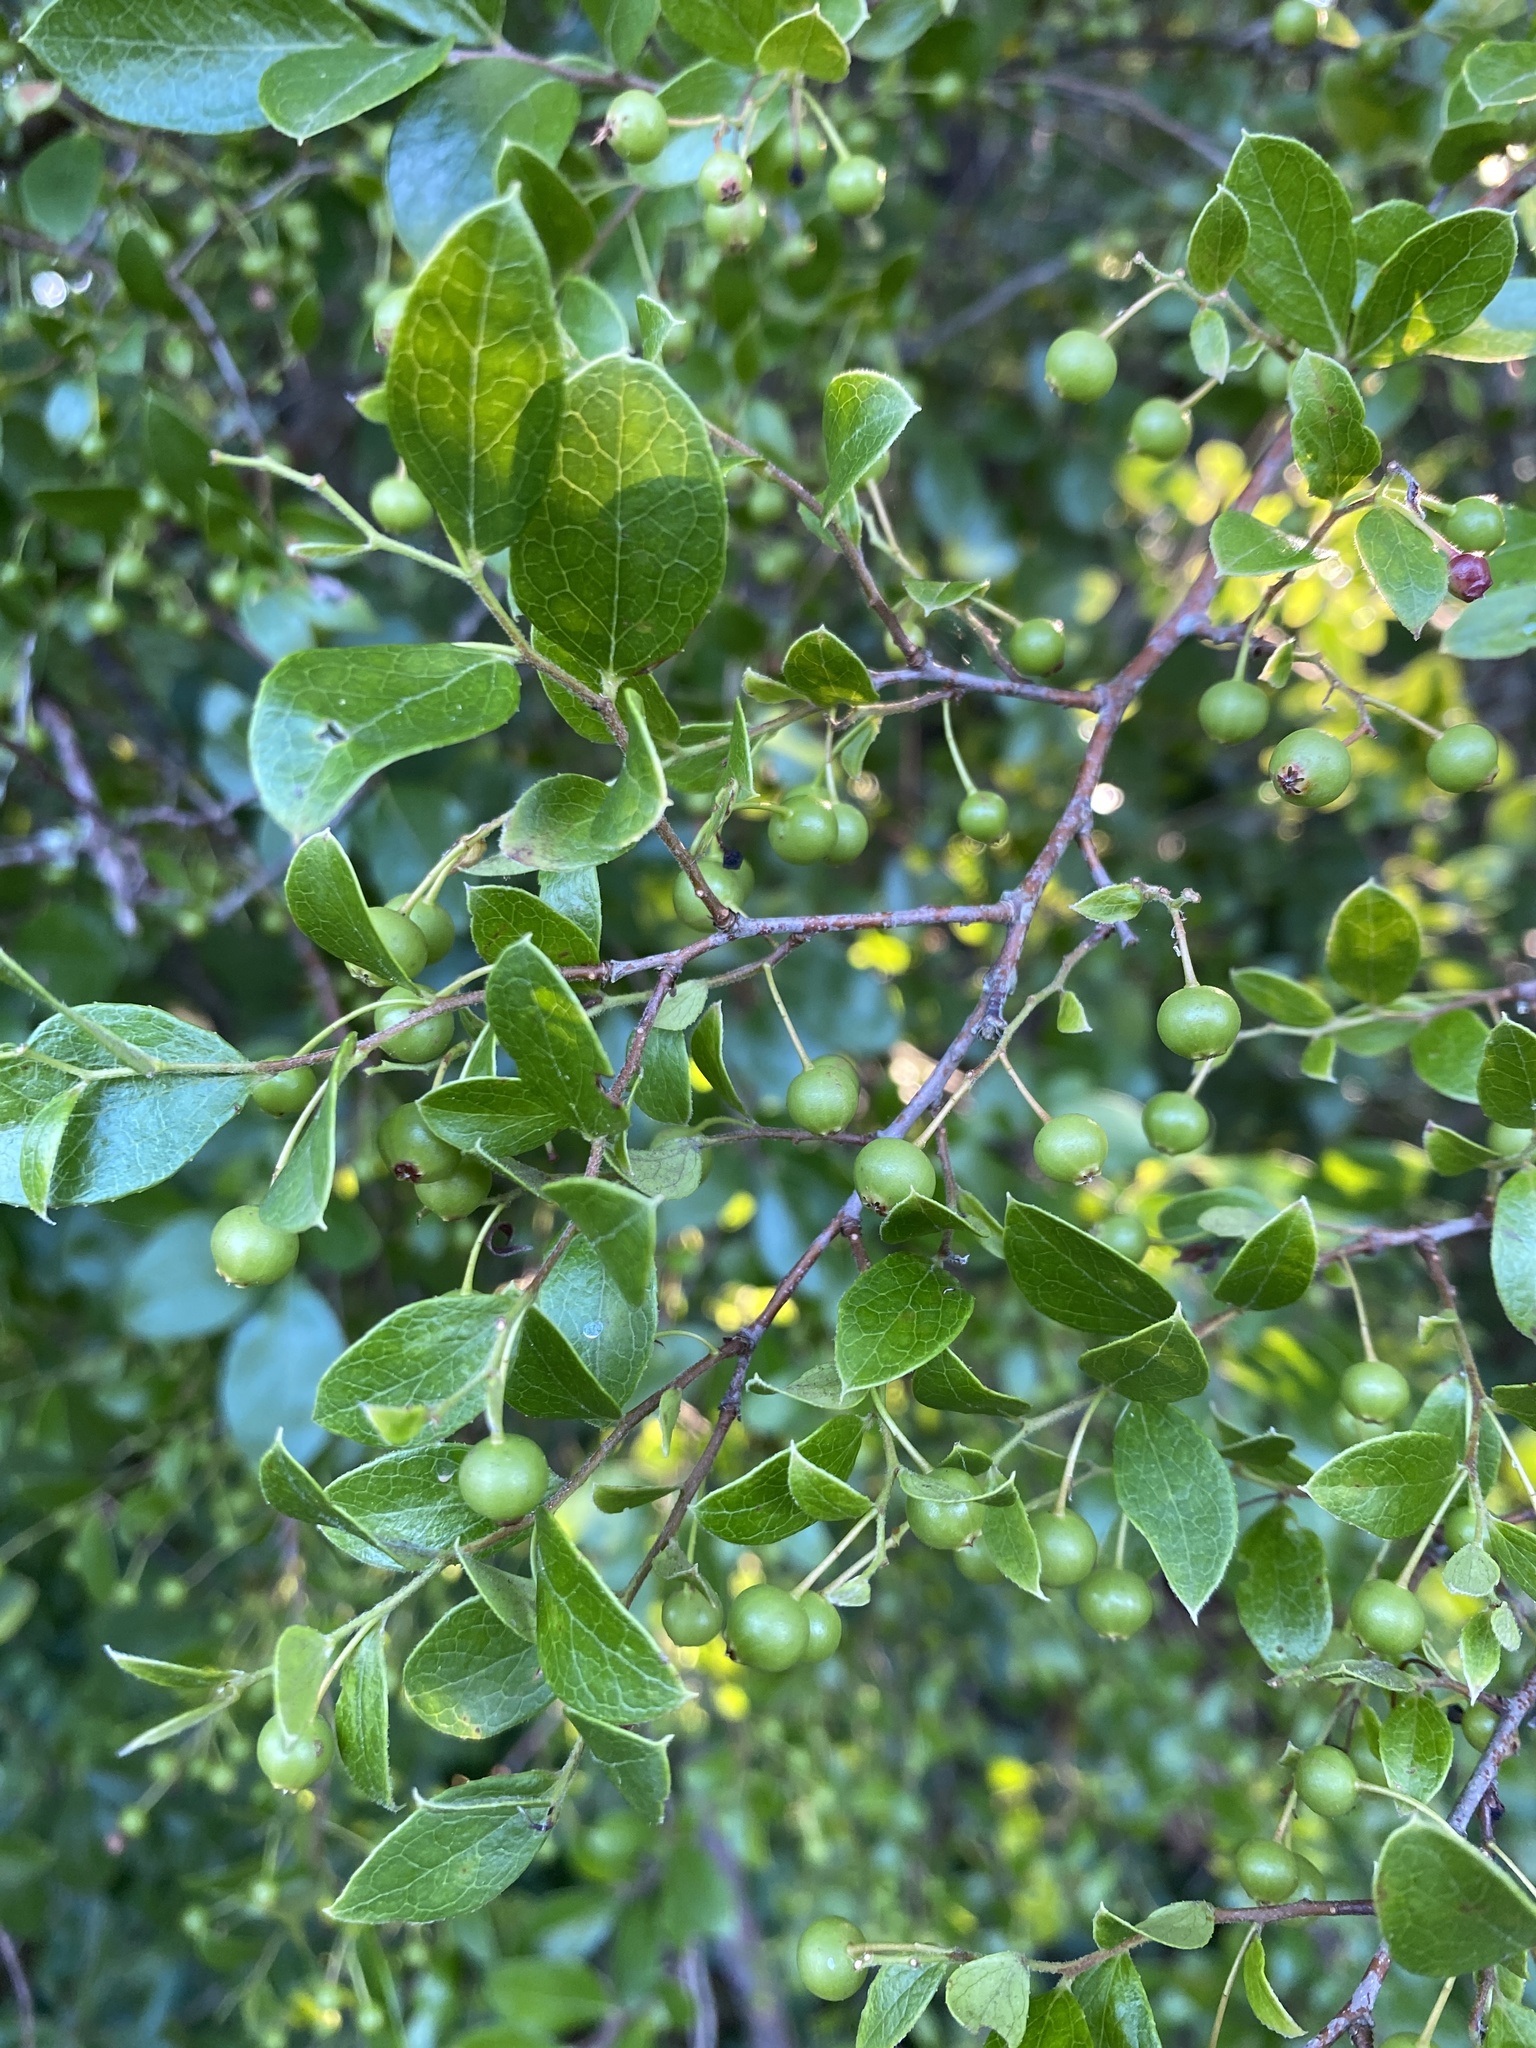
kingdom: Plantae
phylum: Tracheophyta
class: Magnoliopsida
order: Ericales
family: Ericaceae
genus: Vaccinium
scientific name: Vaccinium arboreum
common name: Farkleberry
